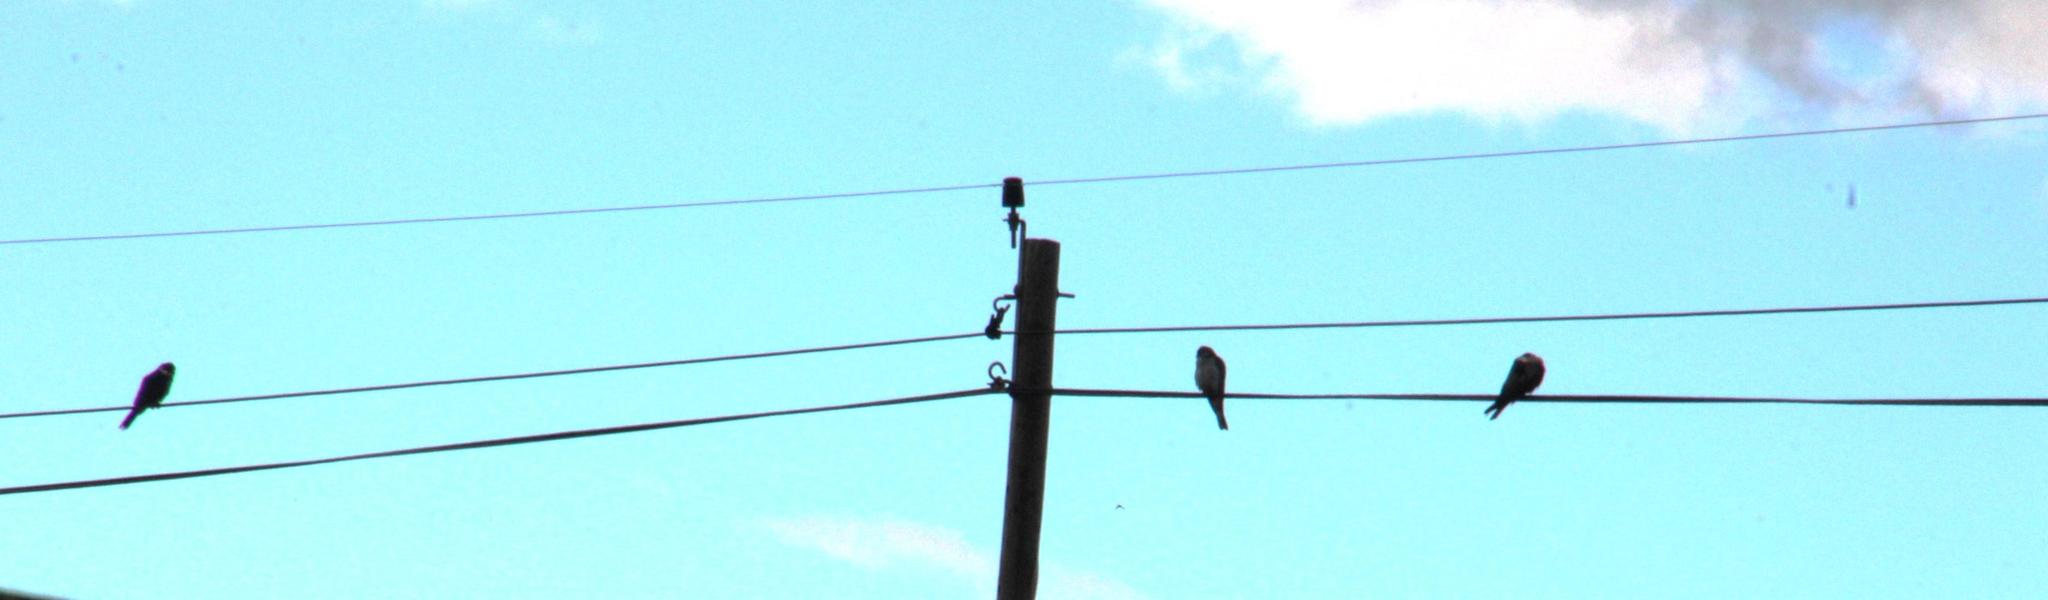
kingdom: Animalia
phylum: Chordata
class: Aves
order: Falconiformes
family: Falconidae
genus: Falco
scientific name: Falco amurensis
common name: Amur falcon
